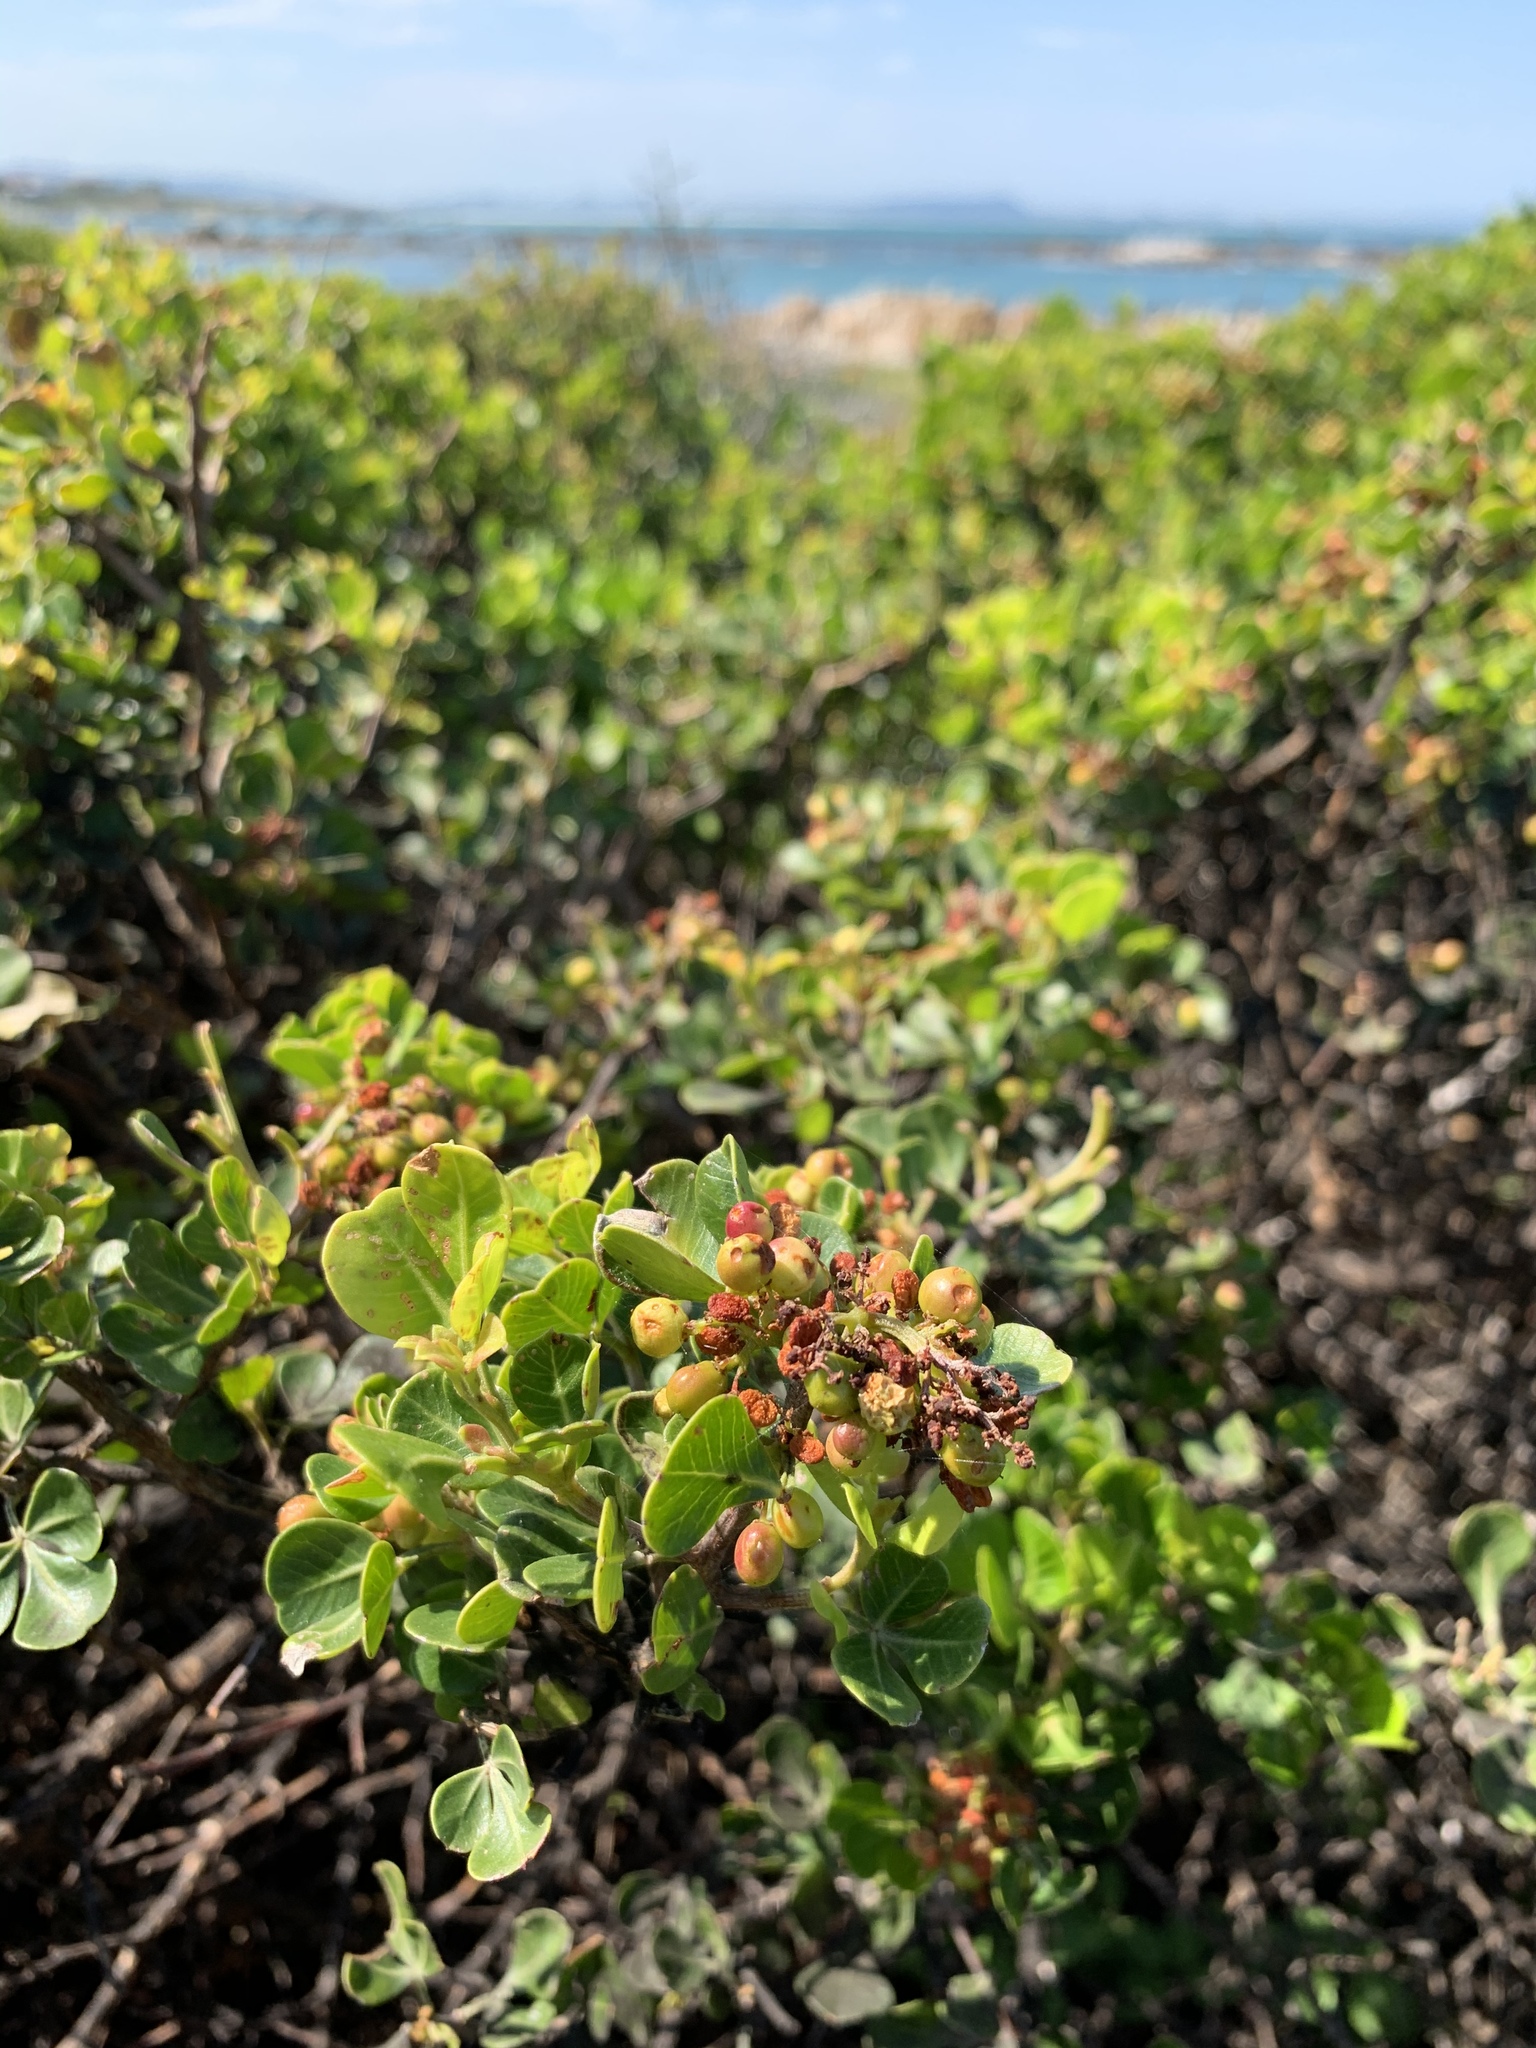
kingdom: Plantae
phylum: Tracheophyta
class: Magnoliopsida
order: Sapindales
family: Anacardiaceae
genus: Searsia
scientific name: Searsia glauca
